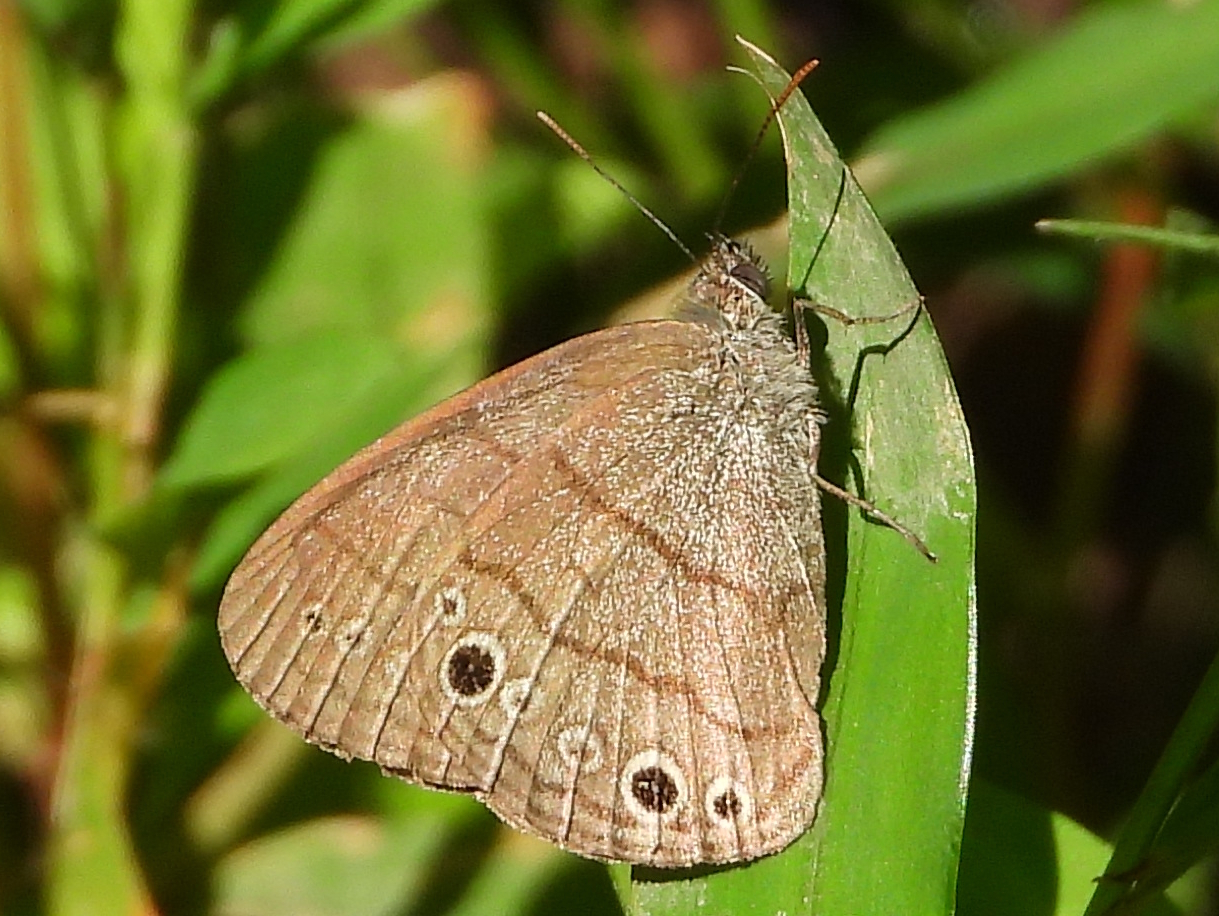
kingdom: Animalia
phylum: Arthropoda
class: Insecta
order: Lepidoptera
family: Nymphalidae
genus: Hermeuptychia
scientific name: Hermeuptychia hermes
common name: Hermes satyr
